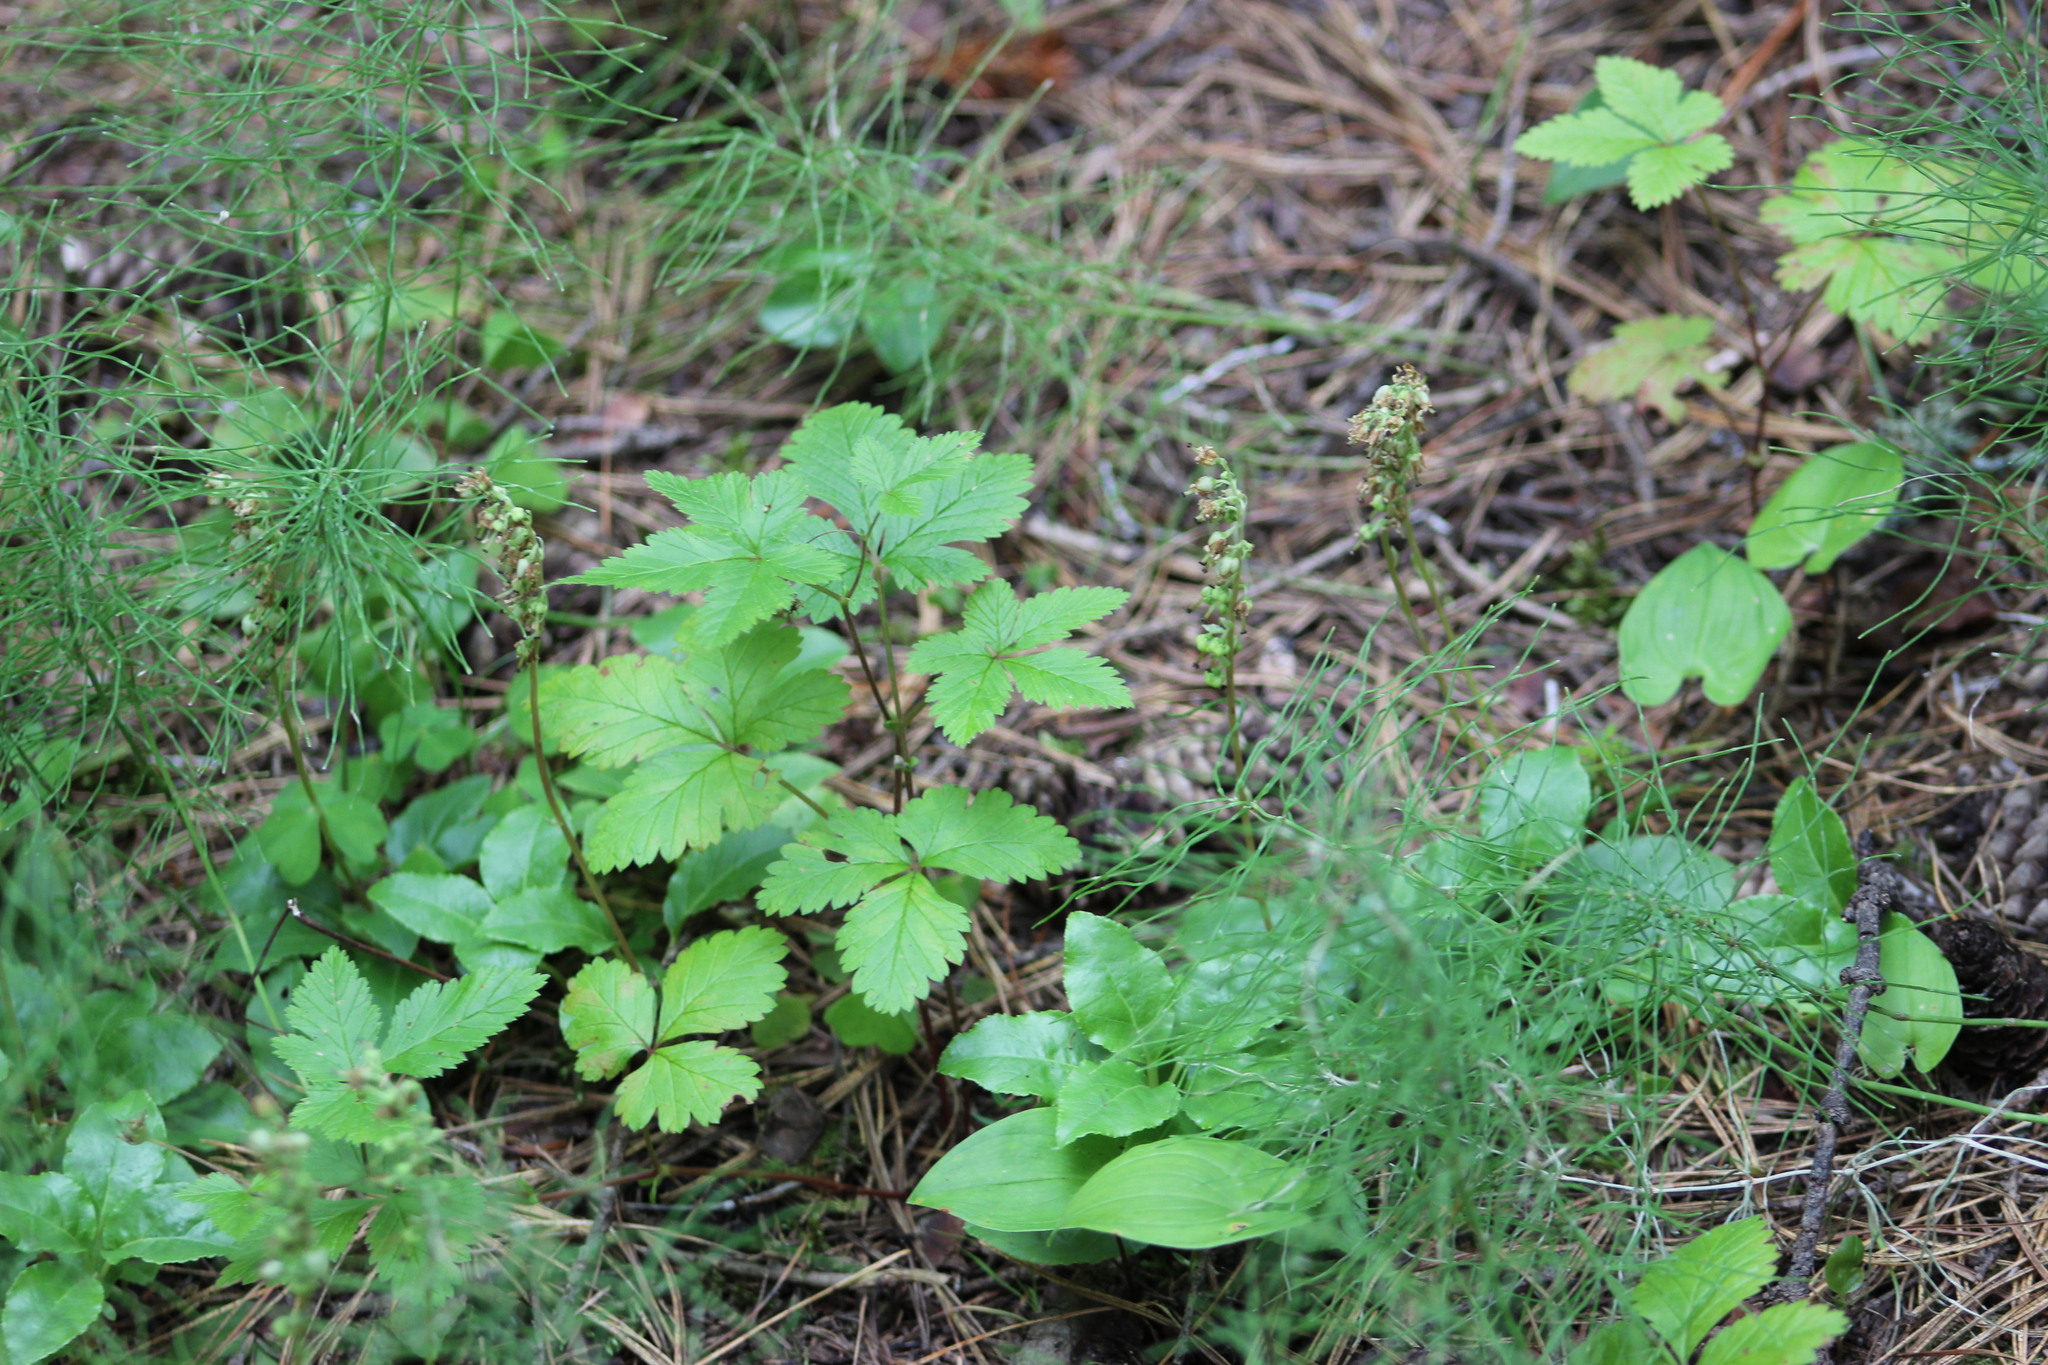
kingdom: Plantae
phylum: Tracheophyta
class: Magnoliopsida
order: Rosales
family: Rosaceae
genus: Rubus
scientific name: Rubus arcticus
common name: Arctic bramble
